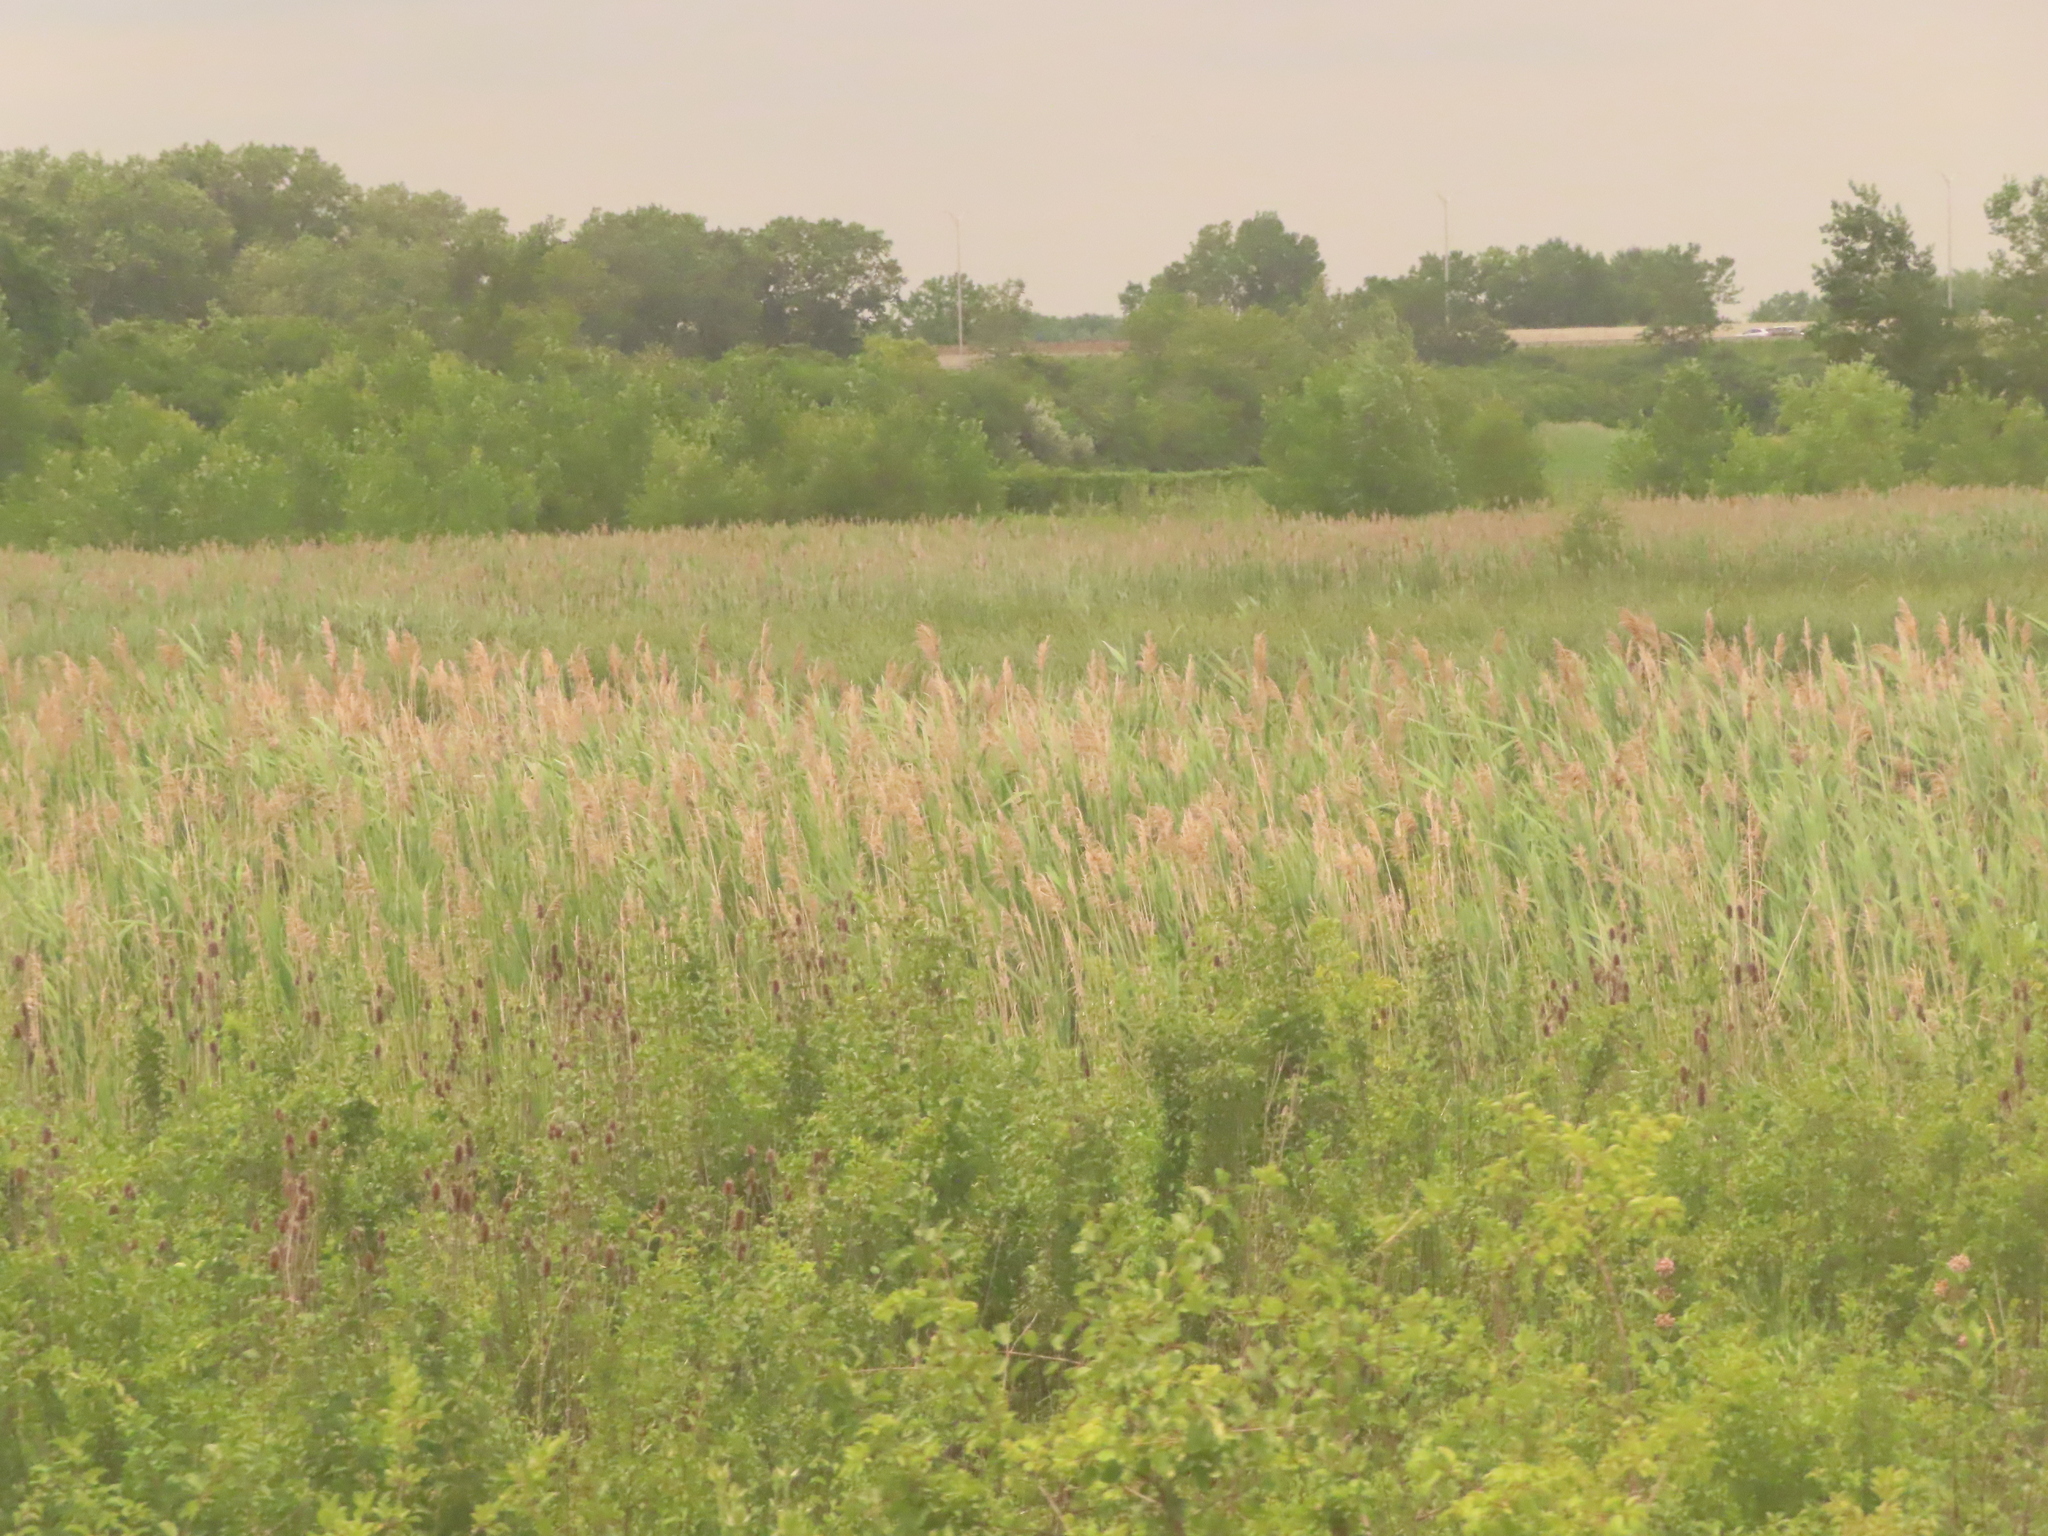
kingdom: Plantae
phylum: Tracheophyta
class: Liliopsida
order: Poales
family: Poaceae
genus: Phragmites
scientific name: Phragmites australis
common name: Common reed
